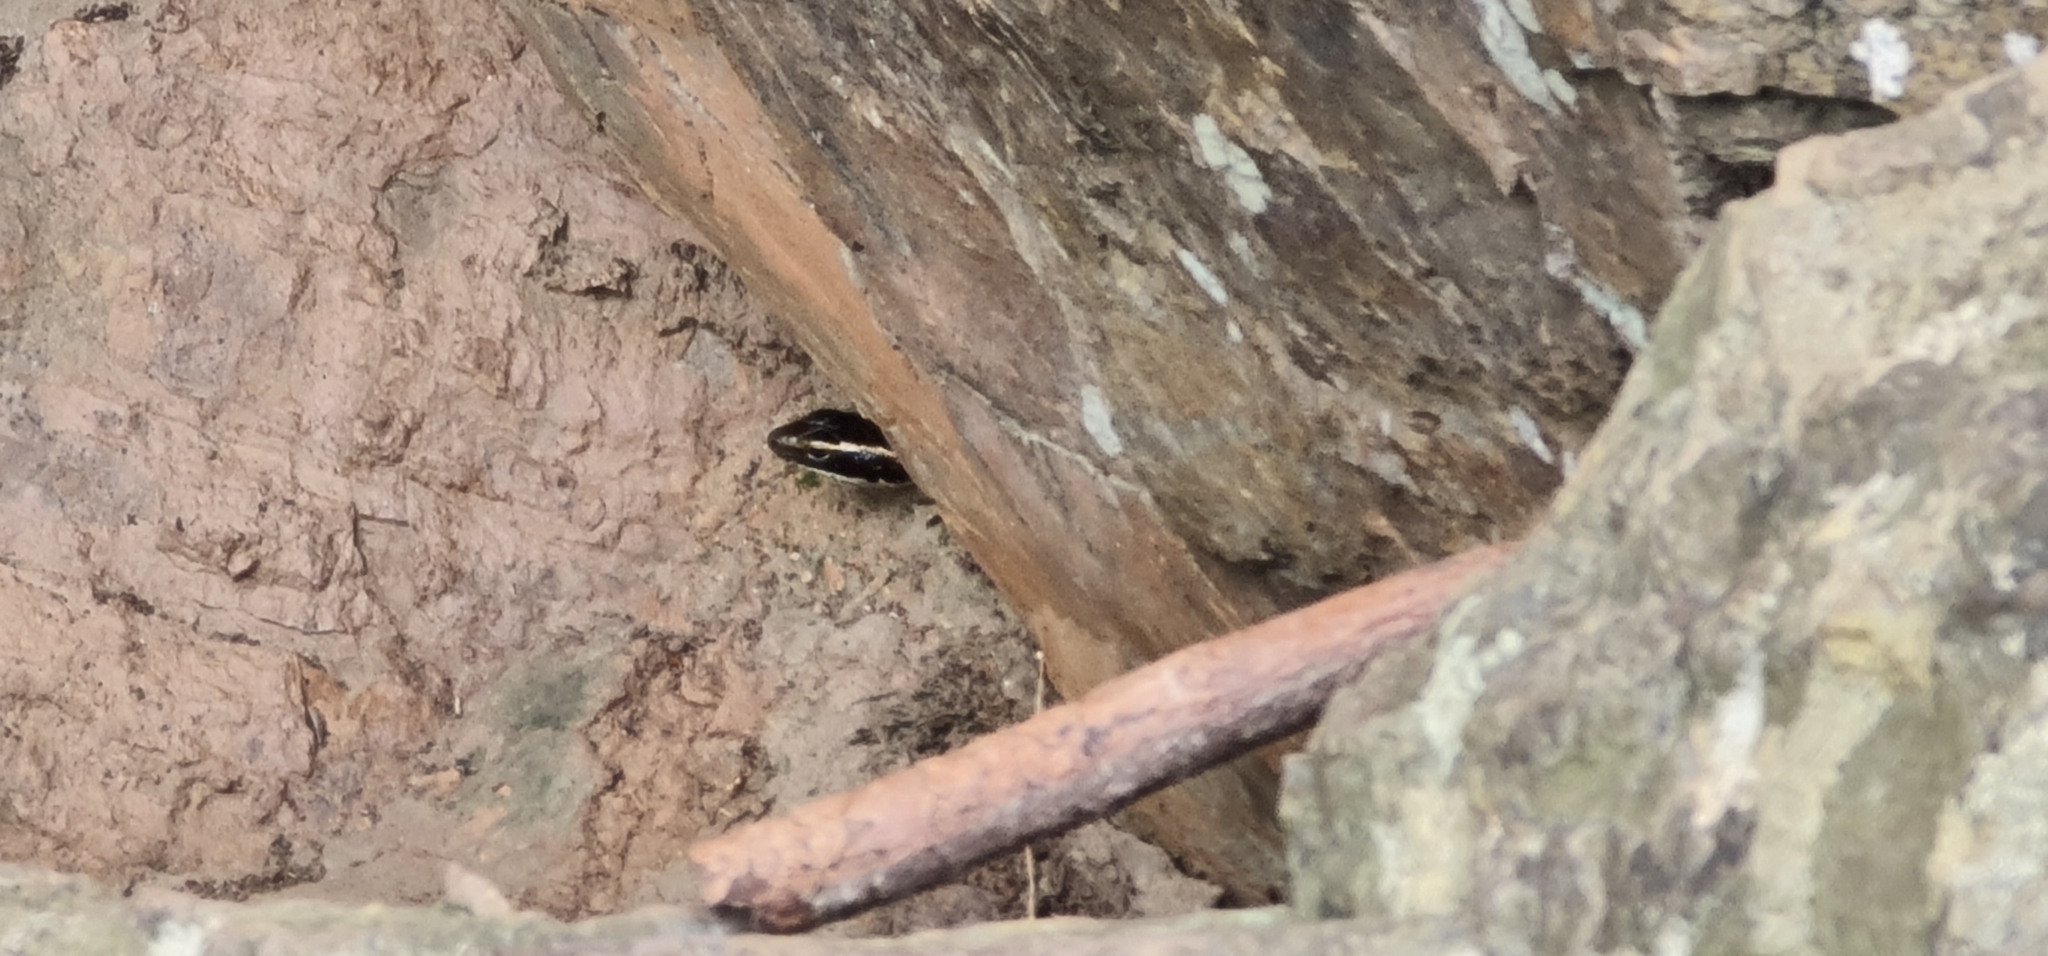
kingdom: Animalia
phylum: Chordata
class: Squamata
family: Scincidae
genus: Eulamprus
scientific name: Eulamprus quoyii
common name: Eastern water skink
